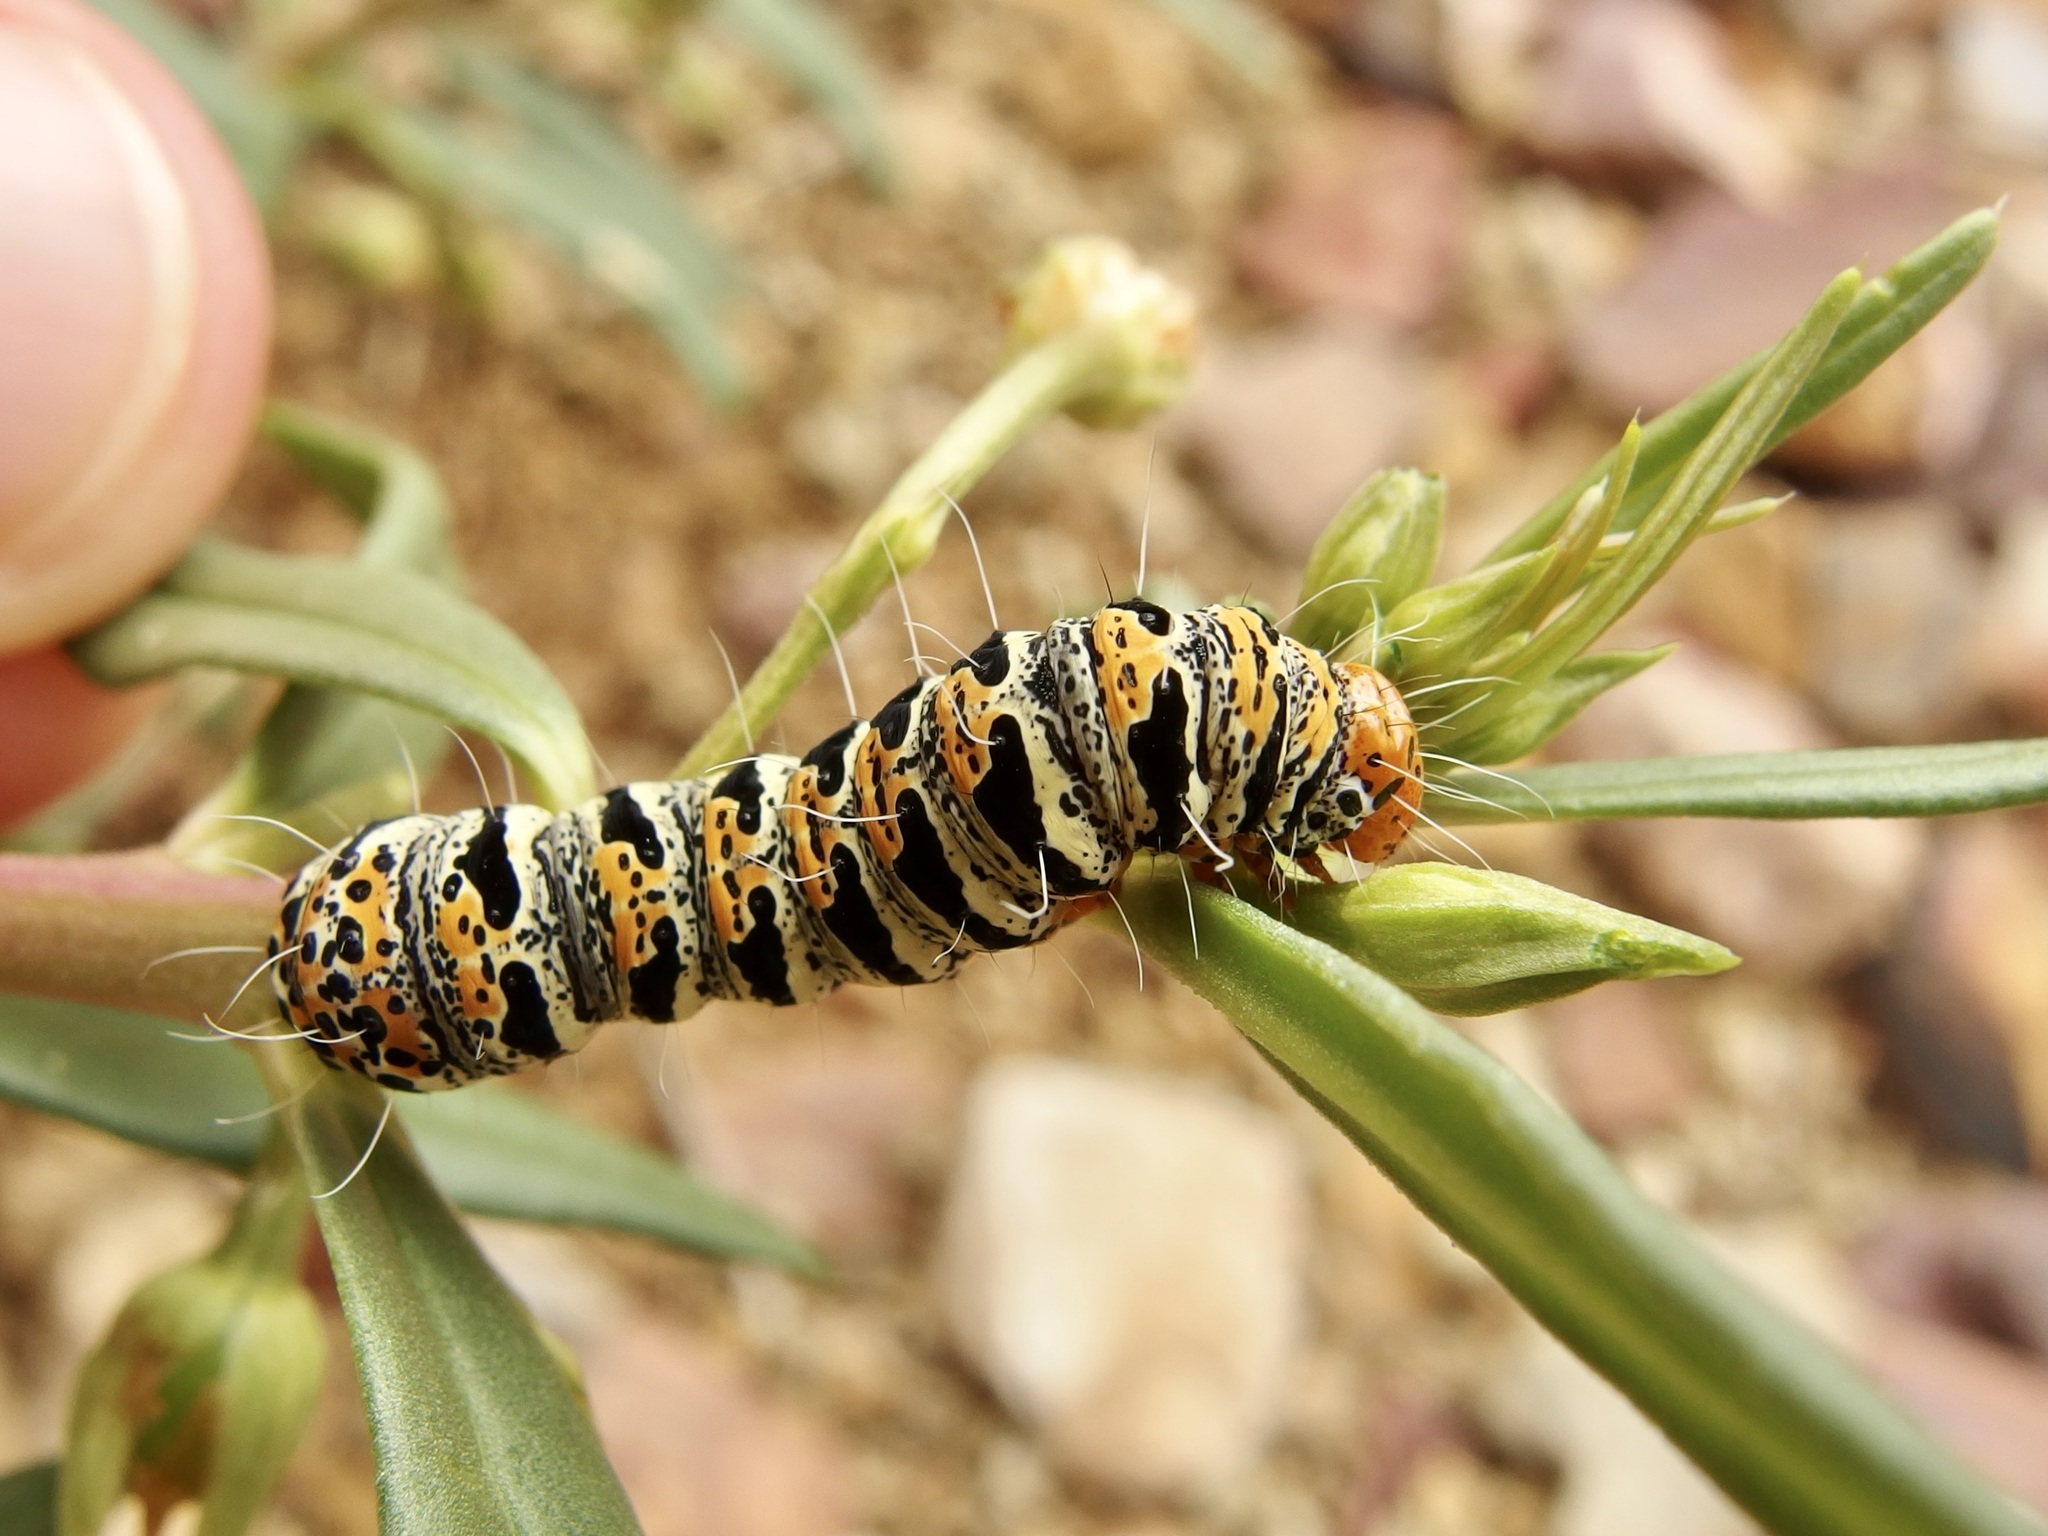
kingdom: Animalia
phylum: Arthropoda
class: Insecta
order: Lepidoptera
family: Noctuidae
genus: Euscirrhopterus
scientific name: Euscirrhopterus gloveri
